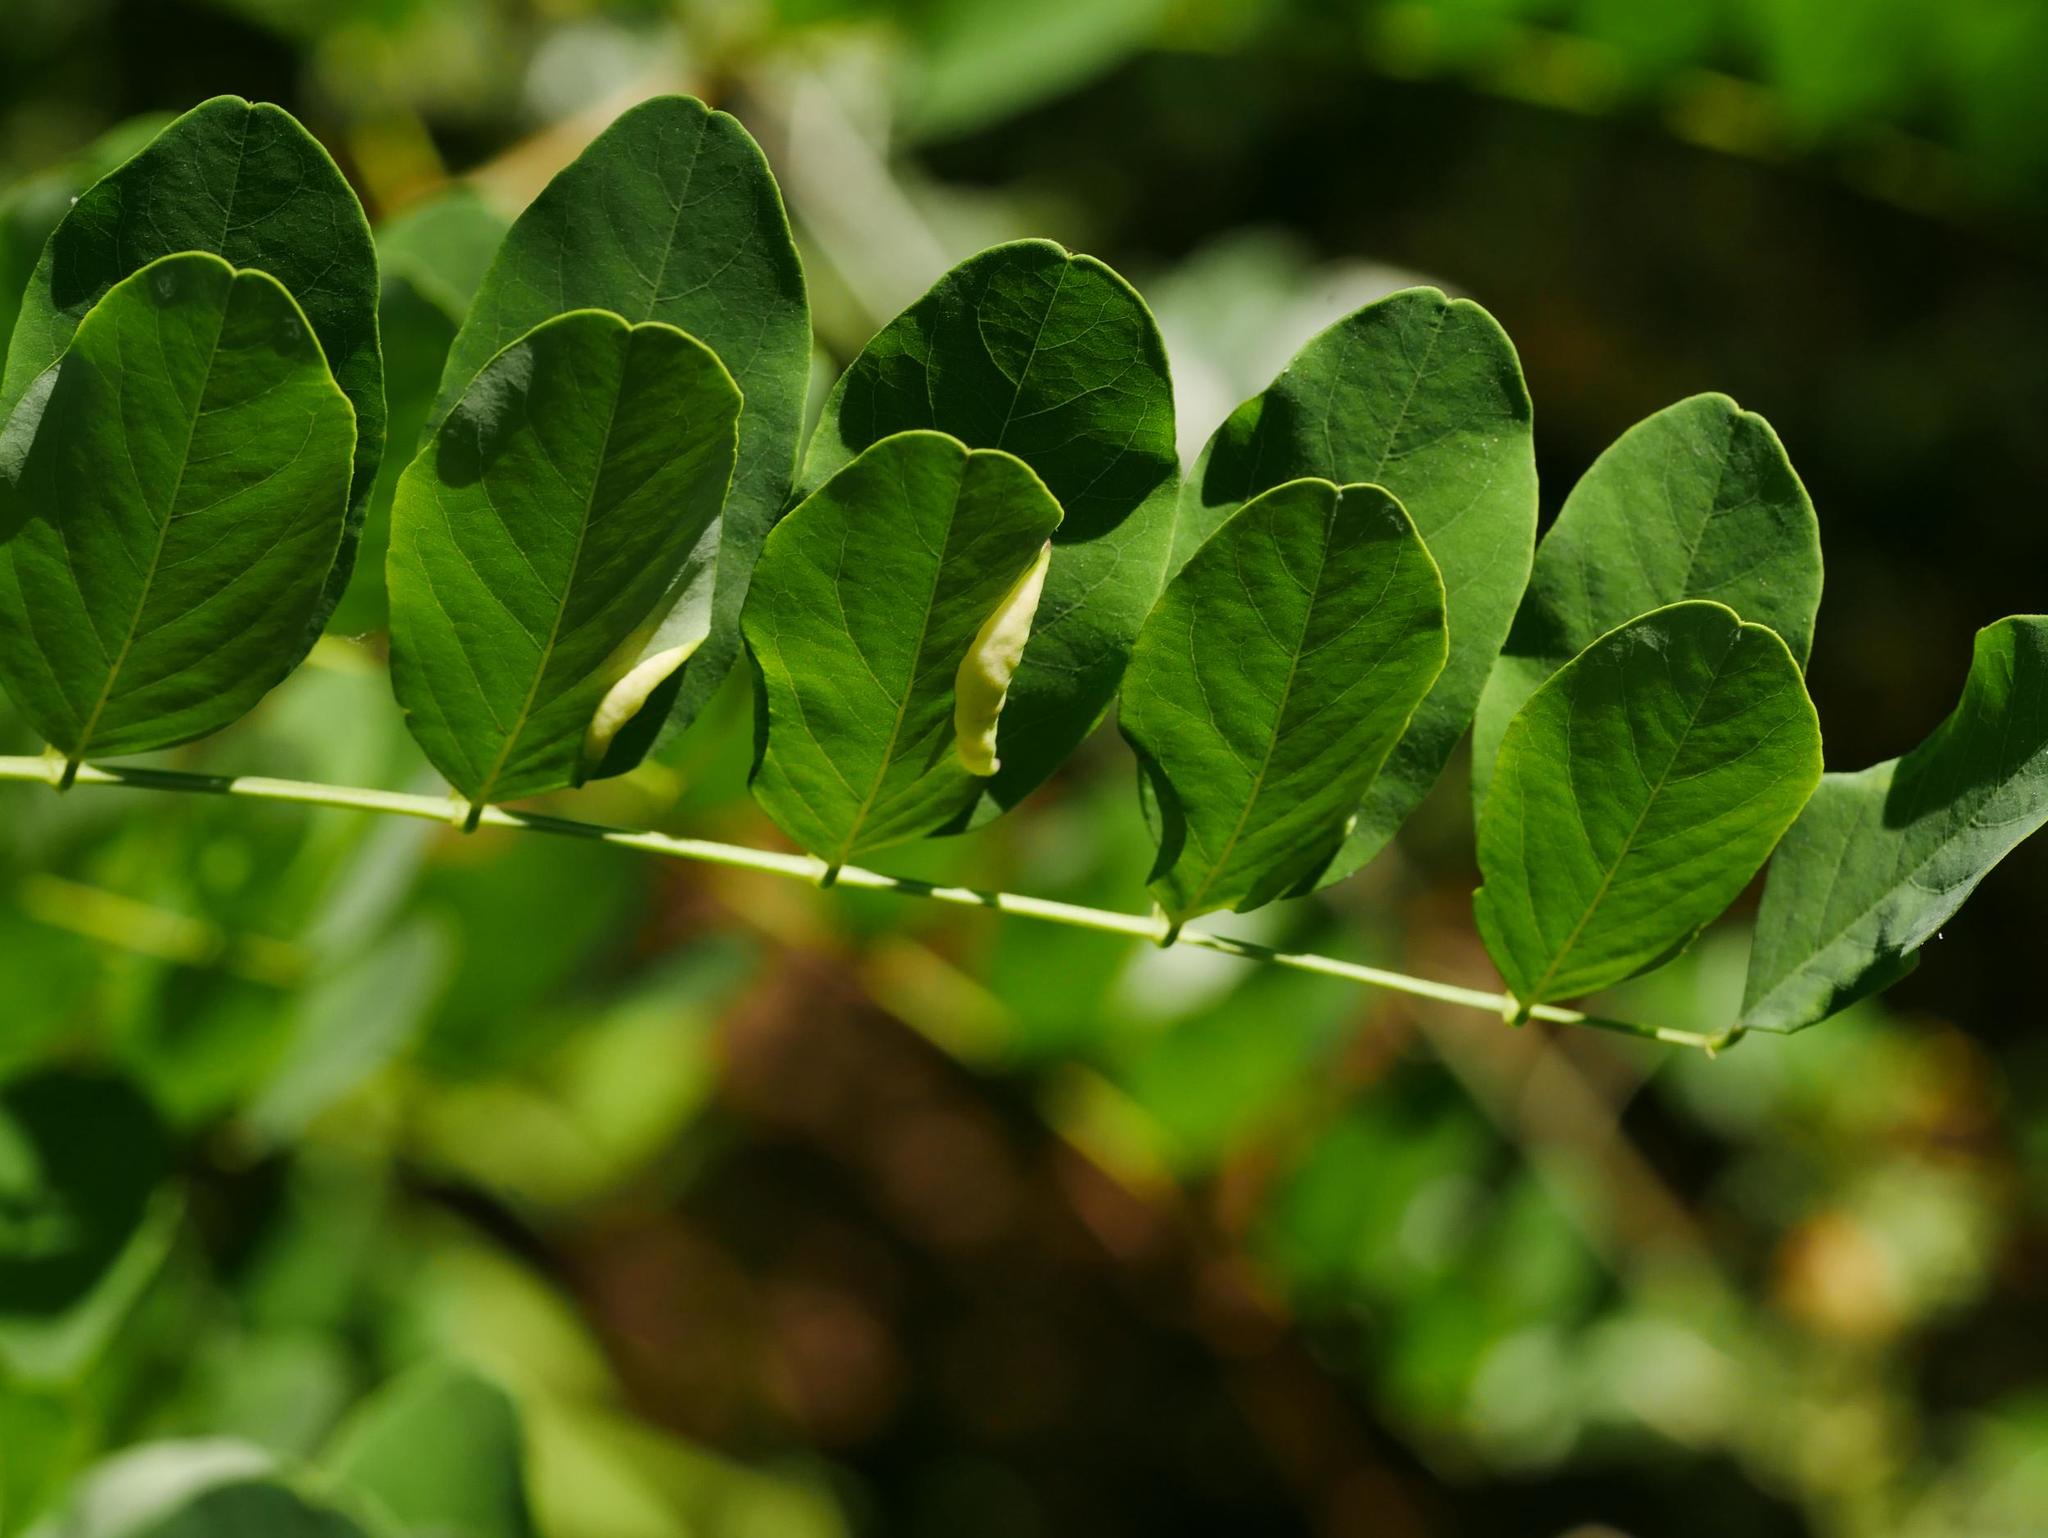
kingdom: Plantae
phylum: Tracheophyta
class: Magnoliopsida
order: Fabales
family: Fabaceae
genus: Robinia
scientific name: Robinia pseudoacacia
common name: Black locust
